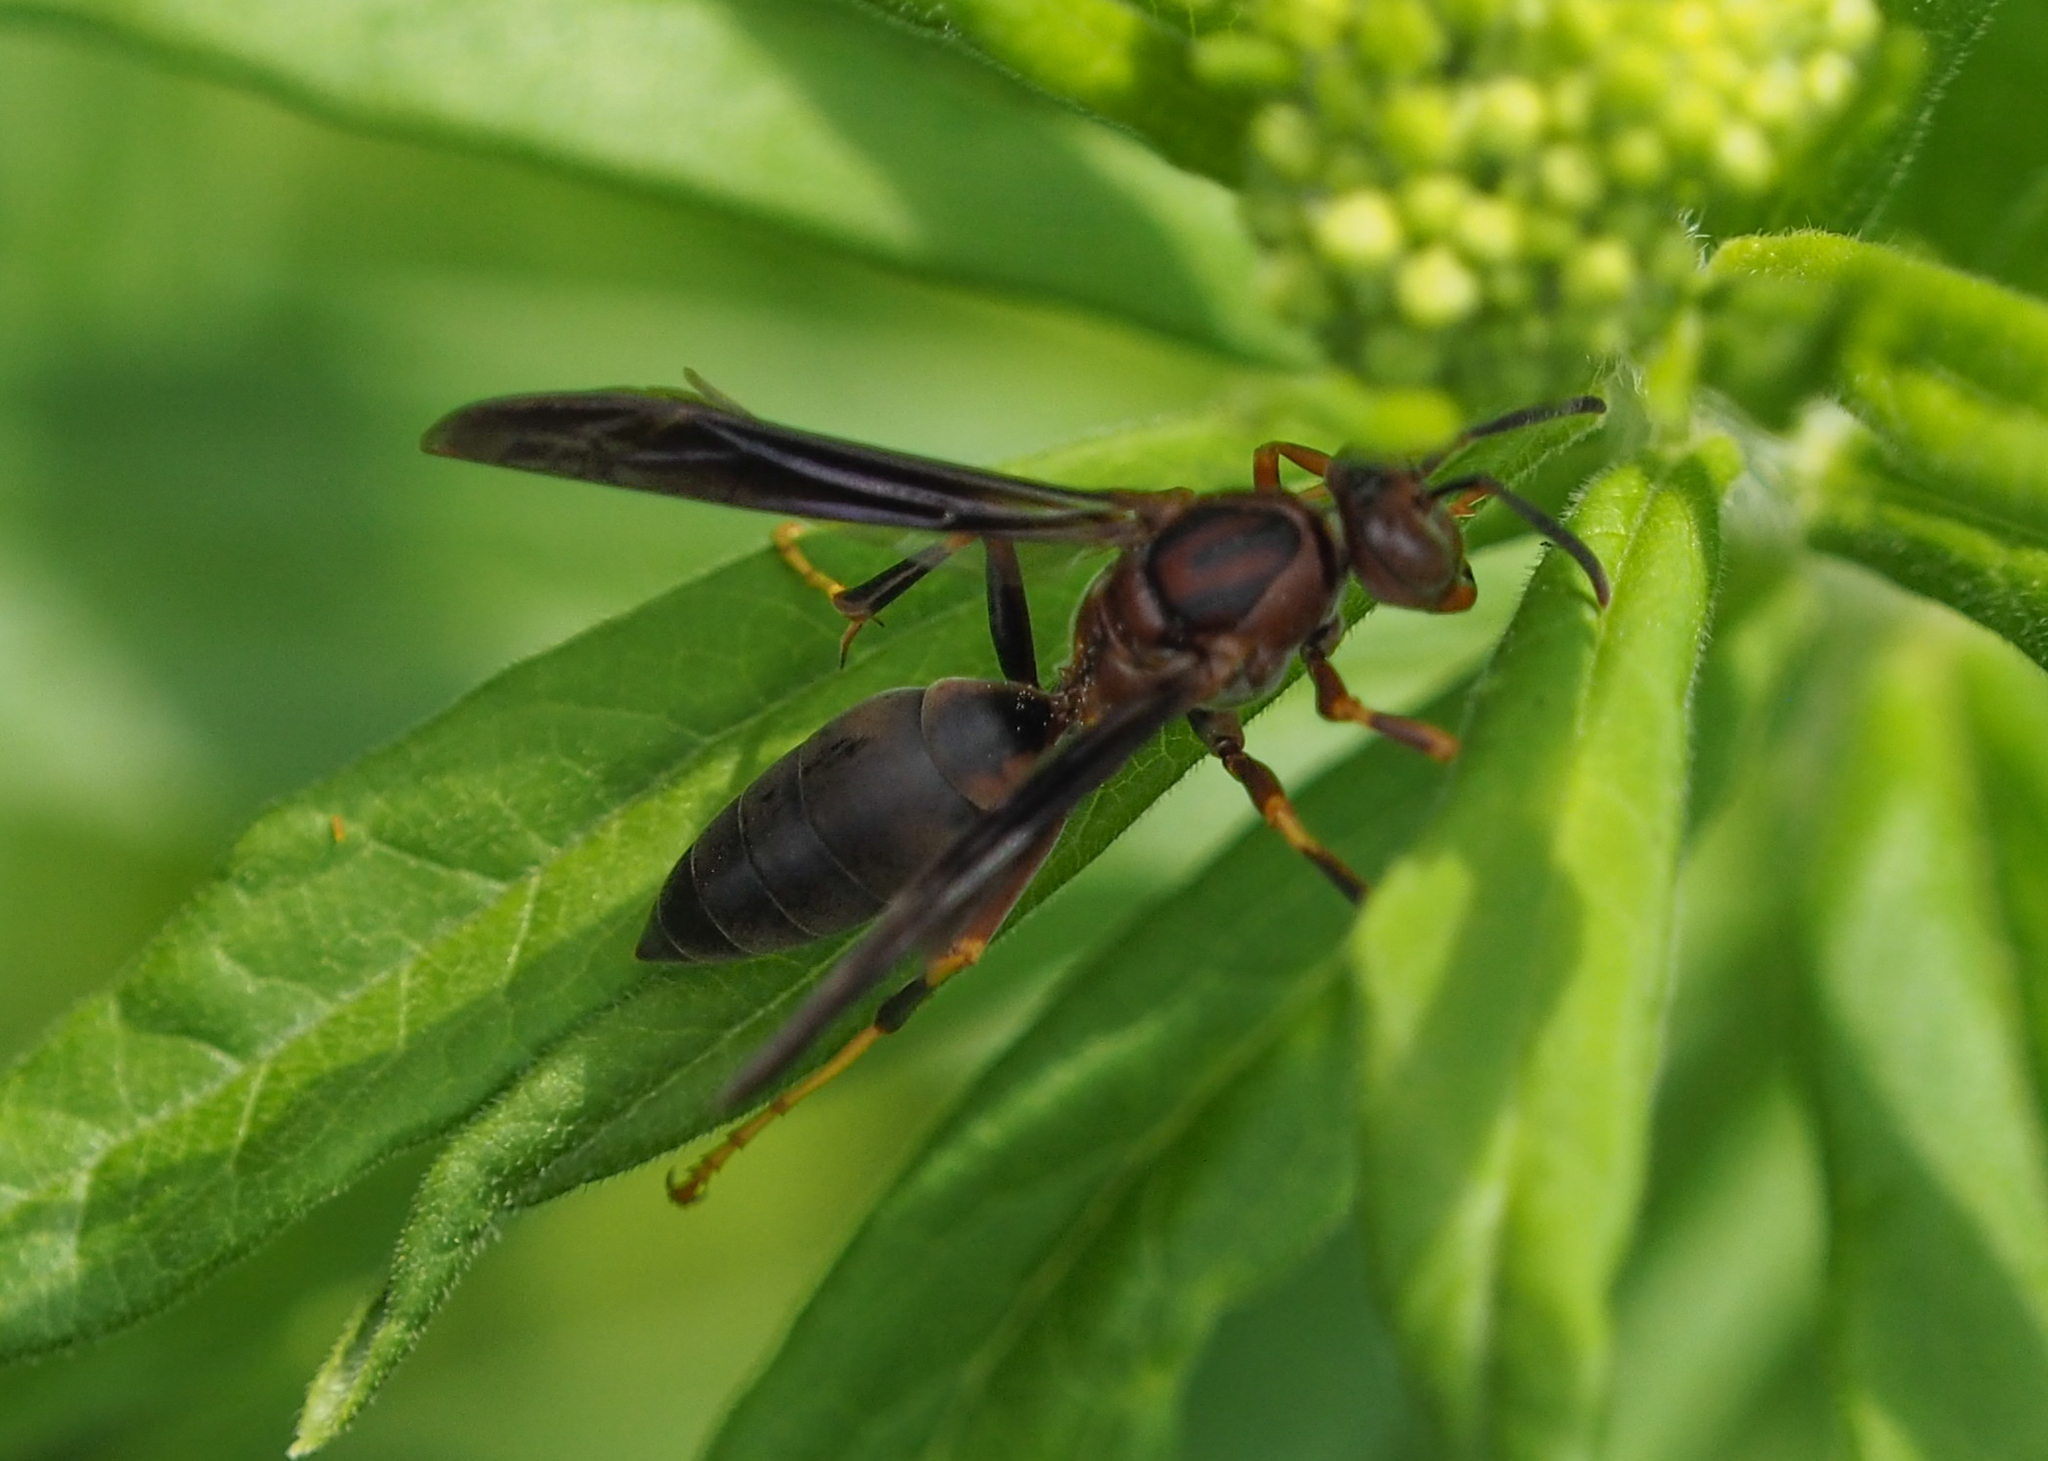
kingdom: Animalia
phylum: Arthropoda
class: Insecta
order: Hymenoptera
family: Eumenidae
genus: Polistes
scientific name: Polistes metricus
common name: Metric paper wasp
